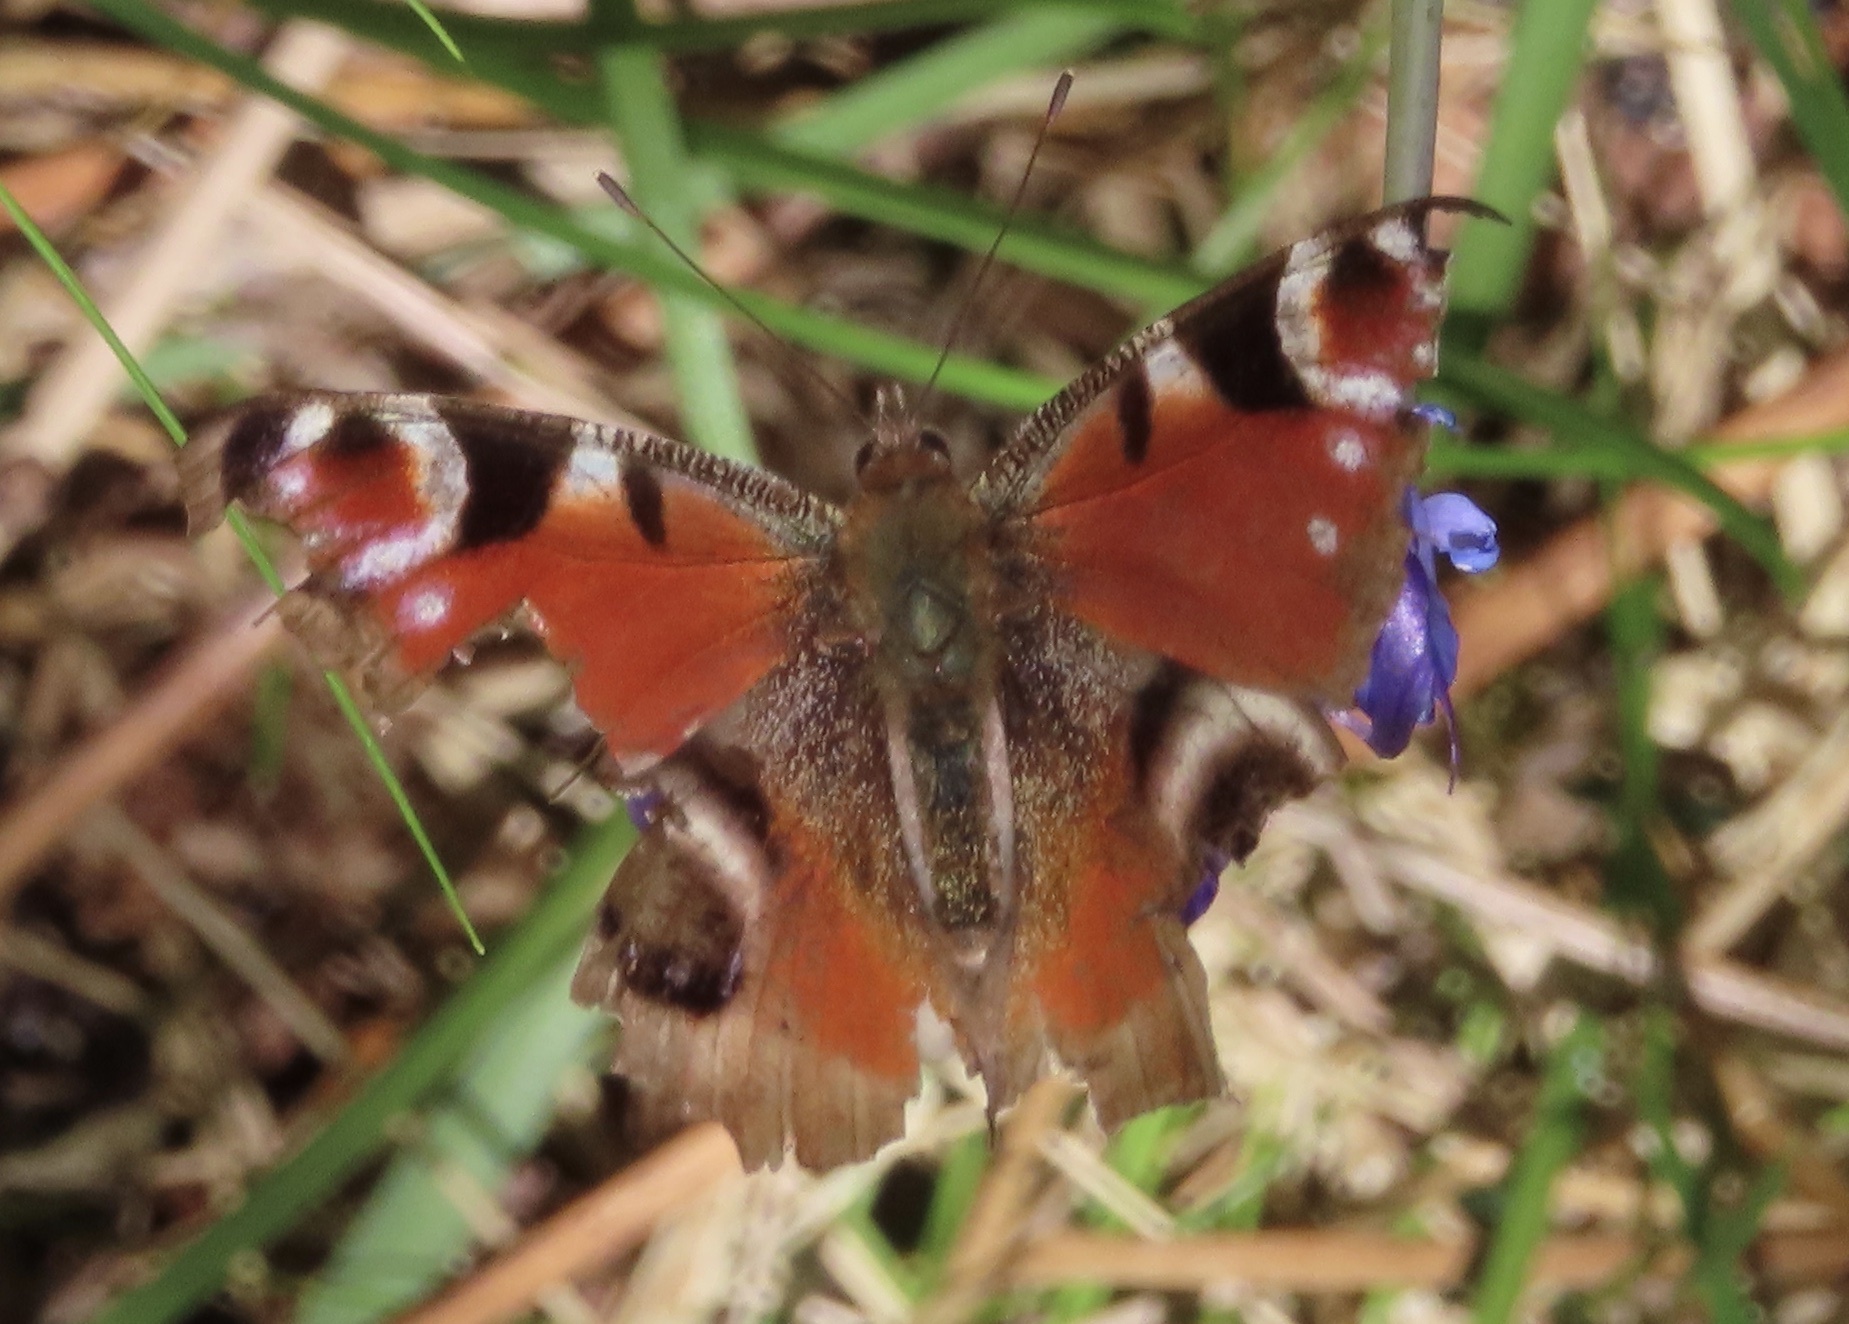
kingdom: Animalia
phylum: Arthropoda
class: Insecta
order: Lepidoptera
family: Nymphalidae
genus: Aglais
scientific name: Aglais io
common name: Peacock
